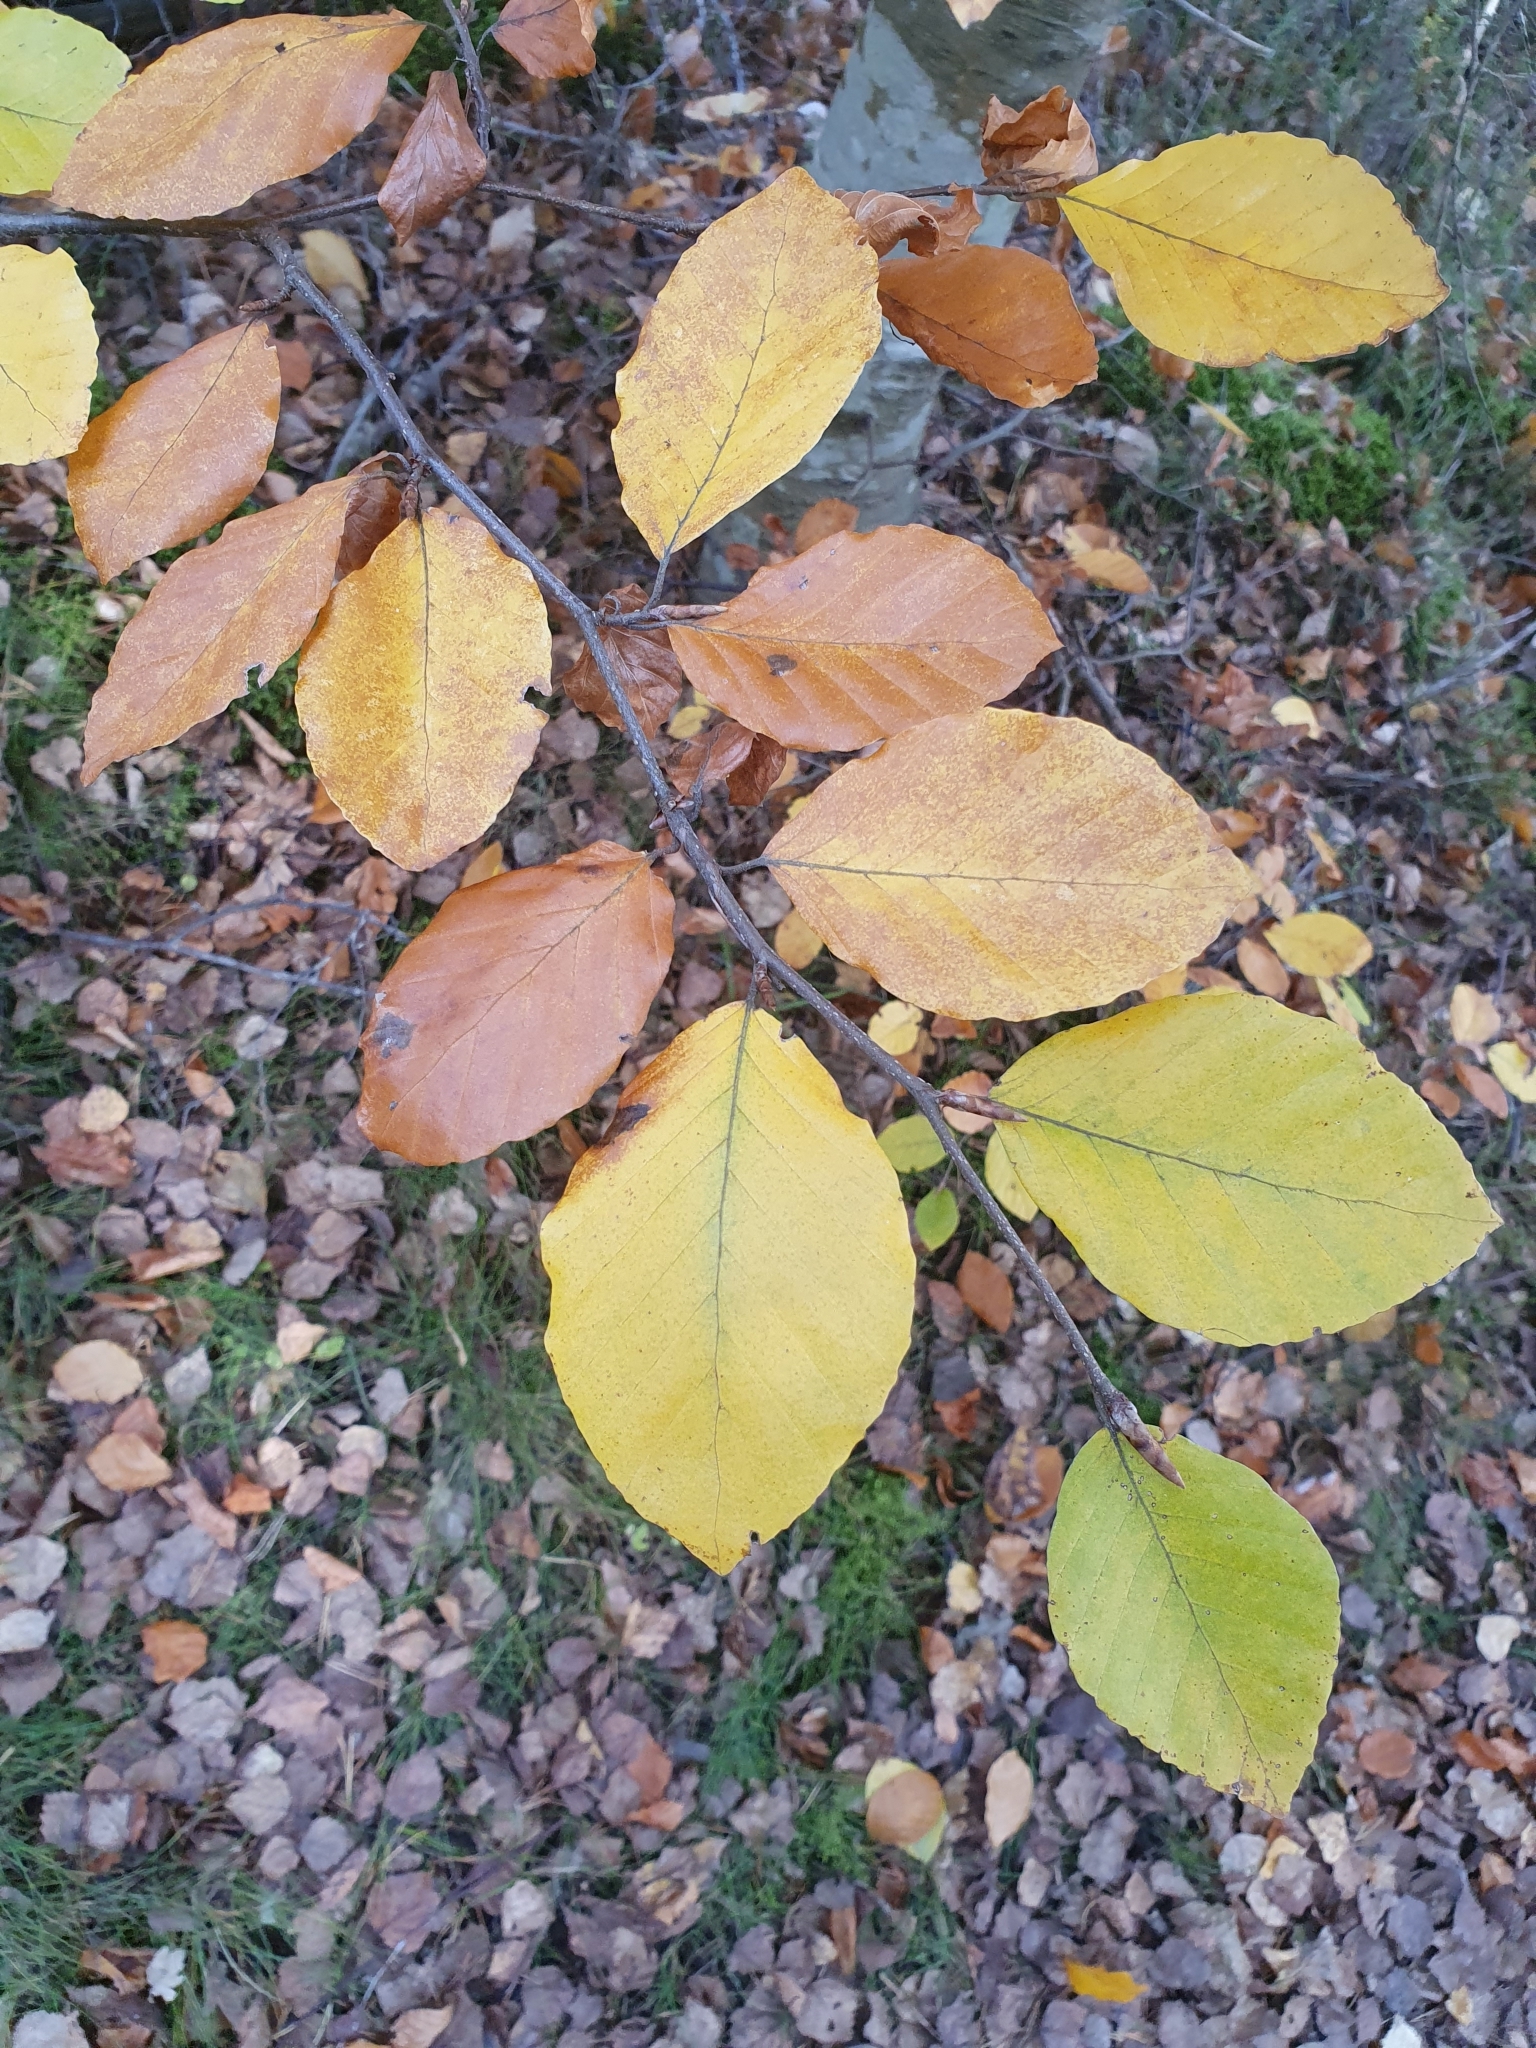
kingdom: Plantae
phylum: Tracheophyta
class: Magnoliopsida
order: Fagales
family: Fagaceae
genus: Fagus
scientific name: Fagus sylvatica
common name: Beech
